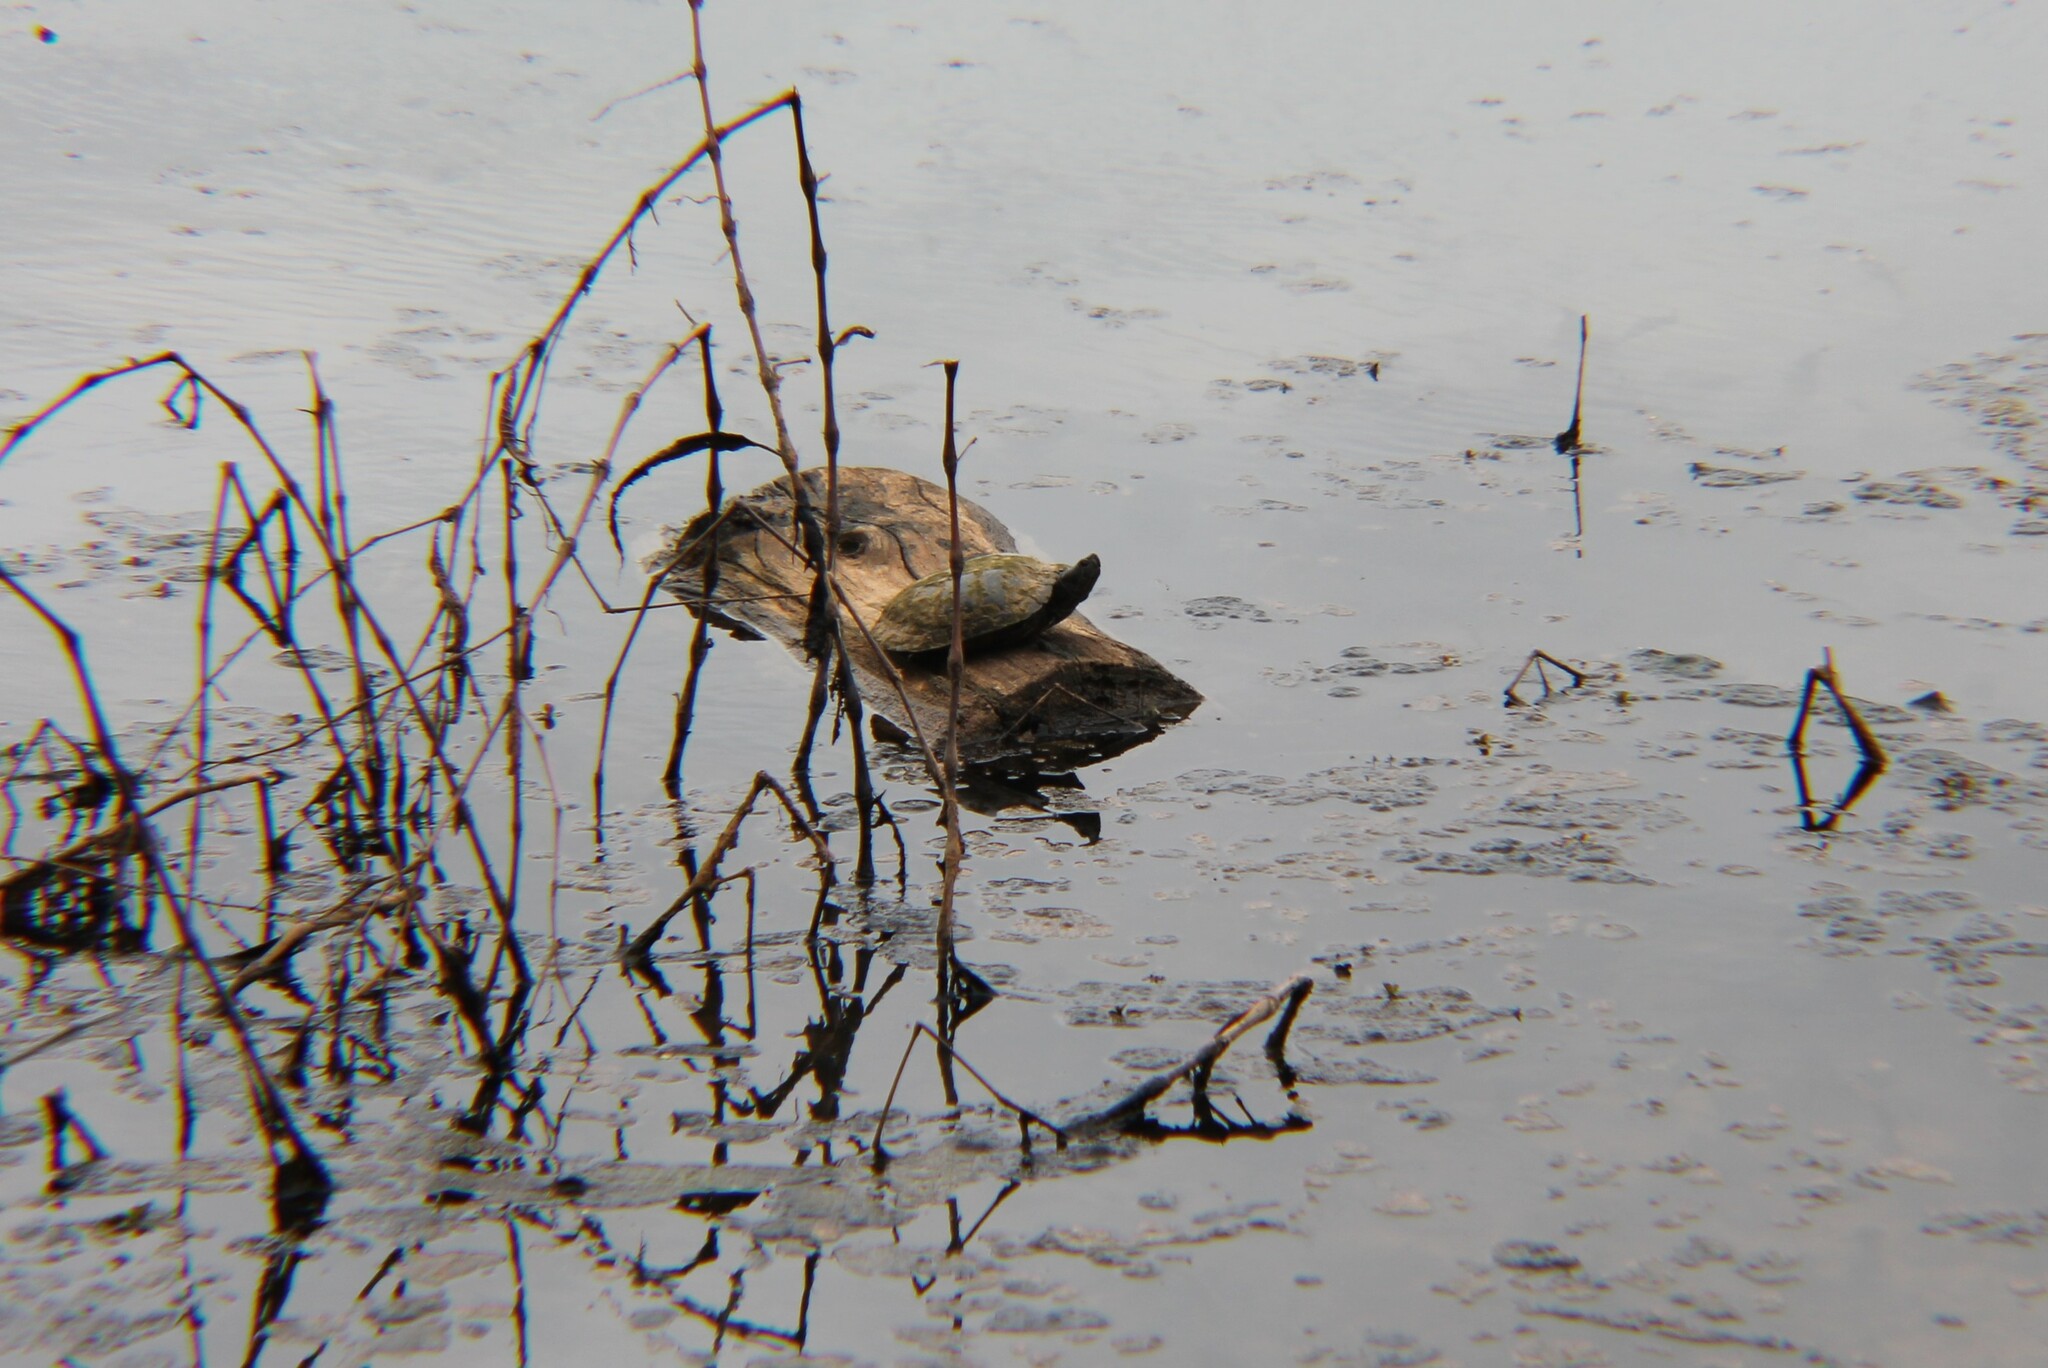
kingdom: Animalia
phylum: Chordata
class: Testudines
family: Emydidae
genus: Trachemys
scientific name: Trachemys scripta
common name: Slider
